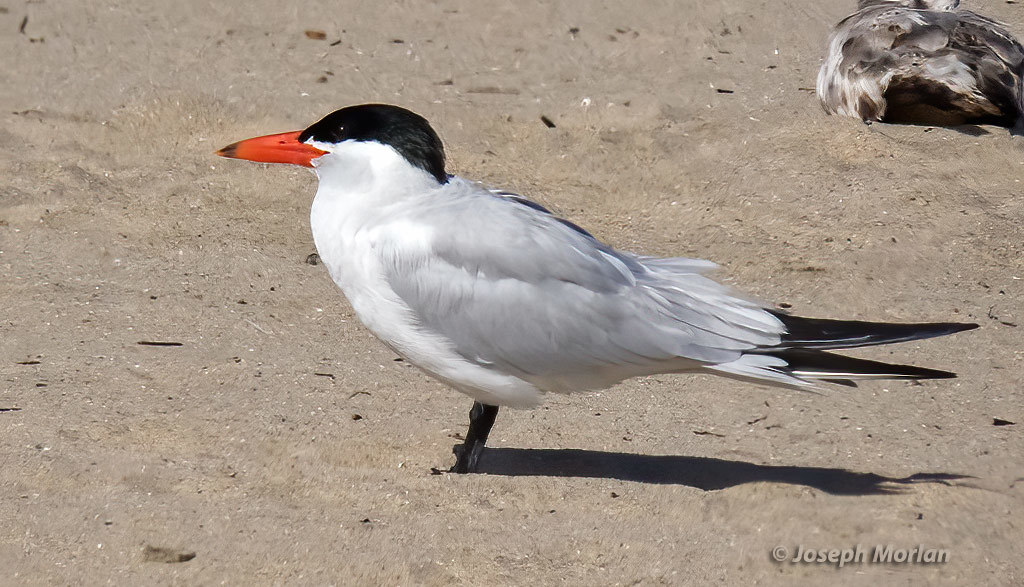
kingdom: Animalia
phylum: Chordata
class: Aves
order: Charadriiformes
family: Laridae
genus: Hydroprogne
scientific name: Hydroprogne caspia
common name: Caspian tern
